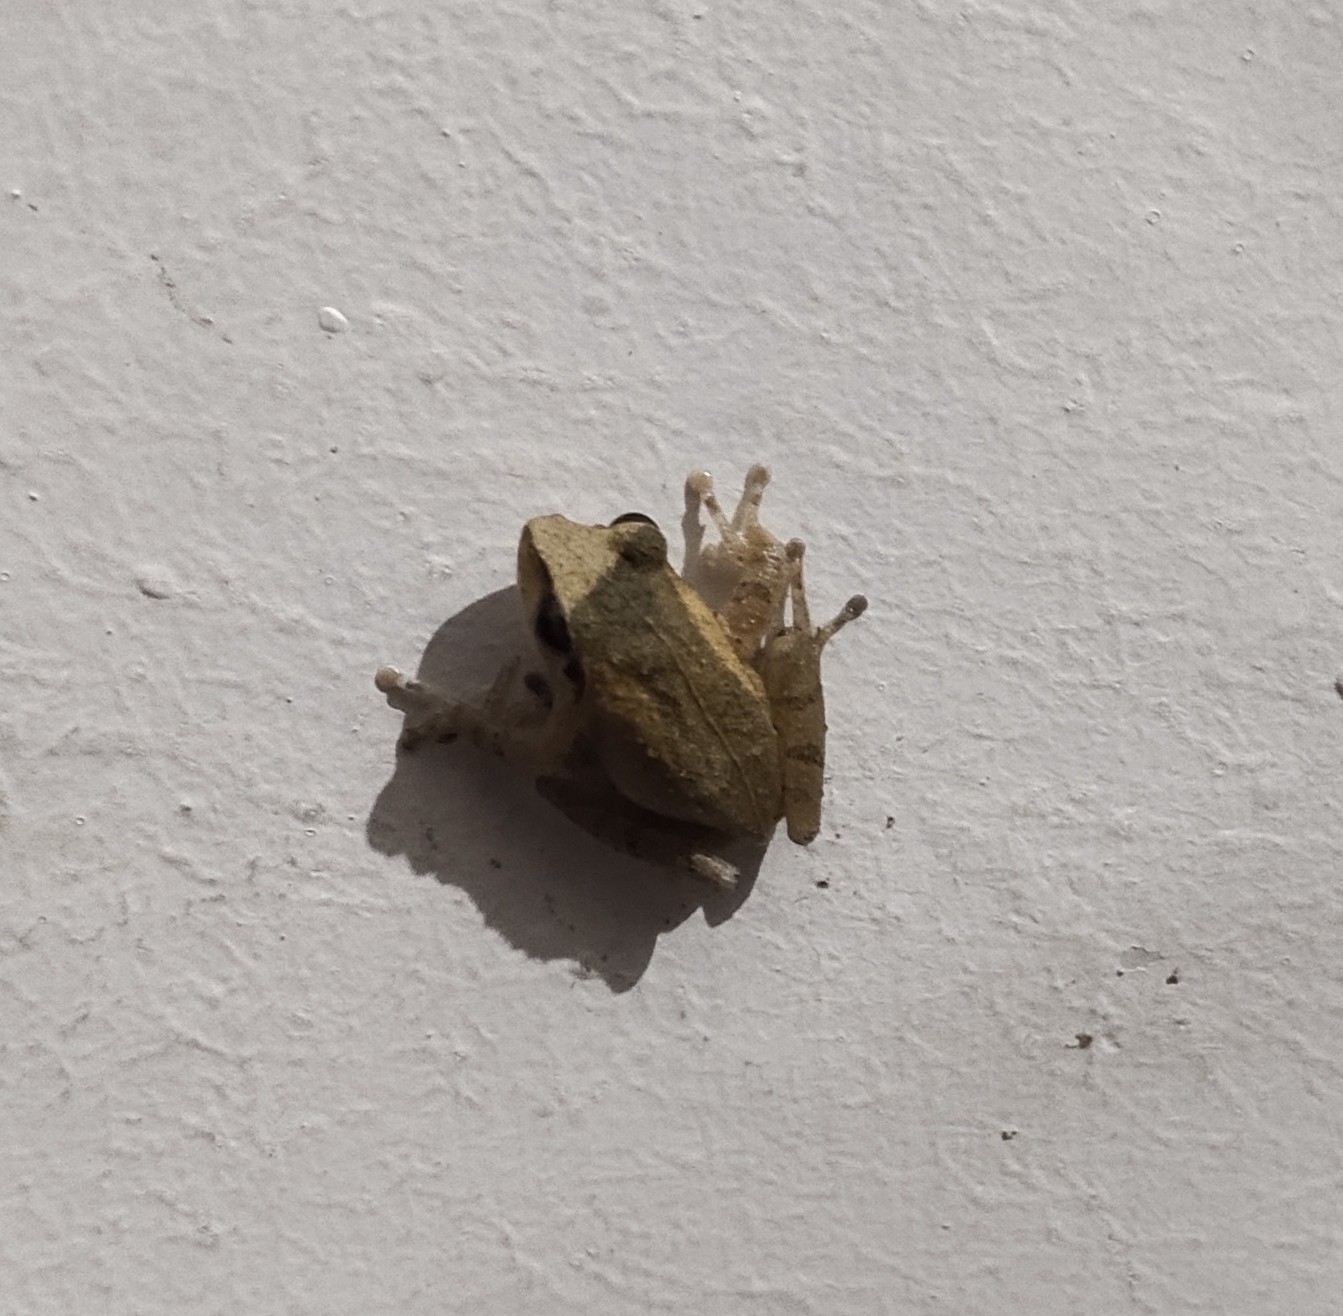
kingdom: Animalia
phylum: Chordata
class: Amphibia
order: Anura
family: Rhacophoridae
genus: Pseudophilautus
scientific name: Pseudophilautus wynaadensis
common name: Dark-eared bush frog
